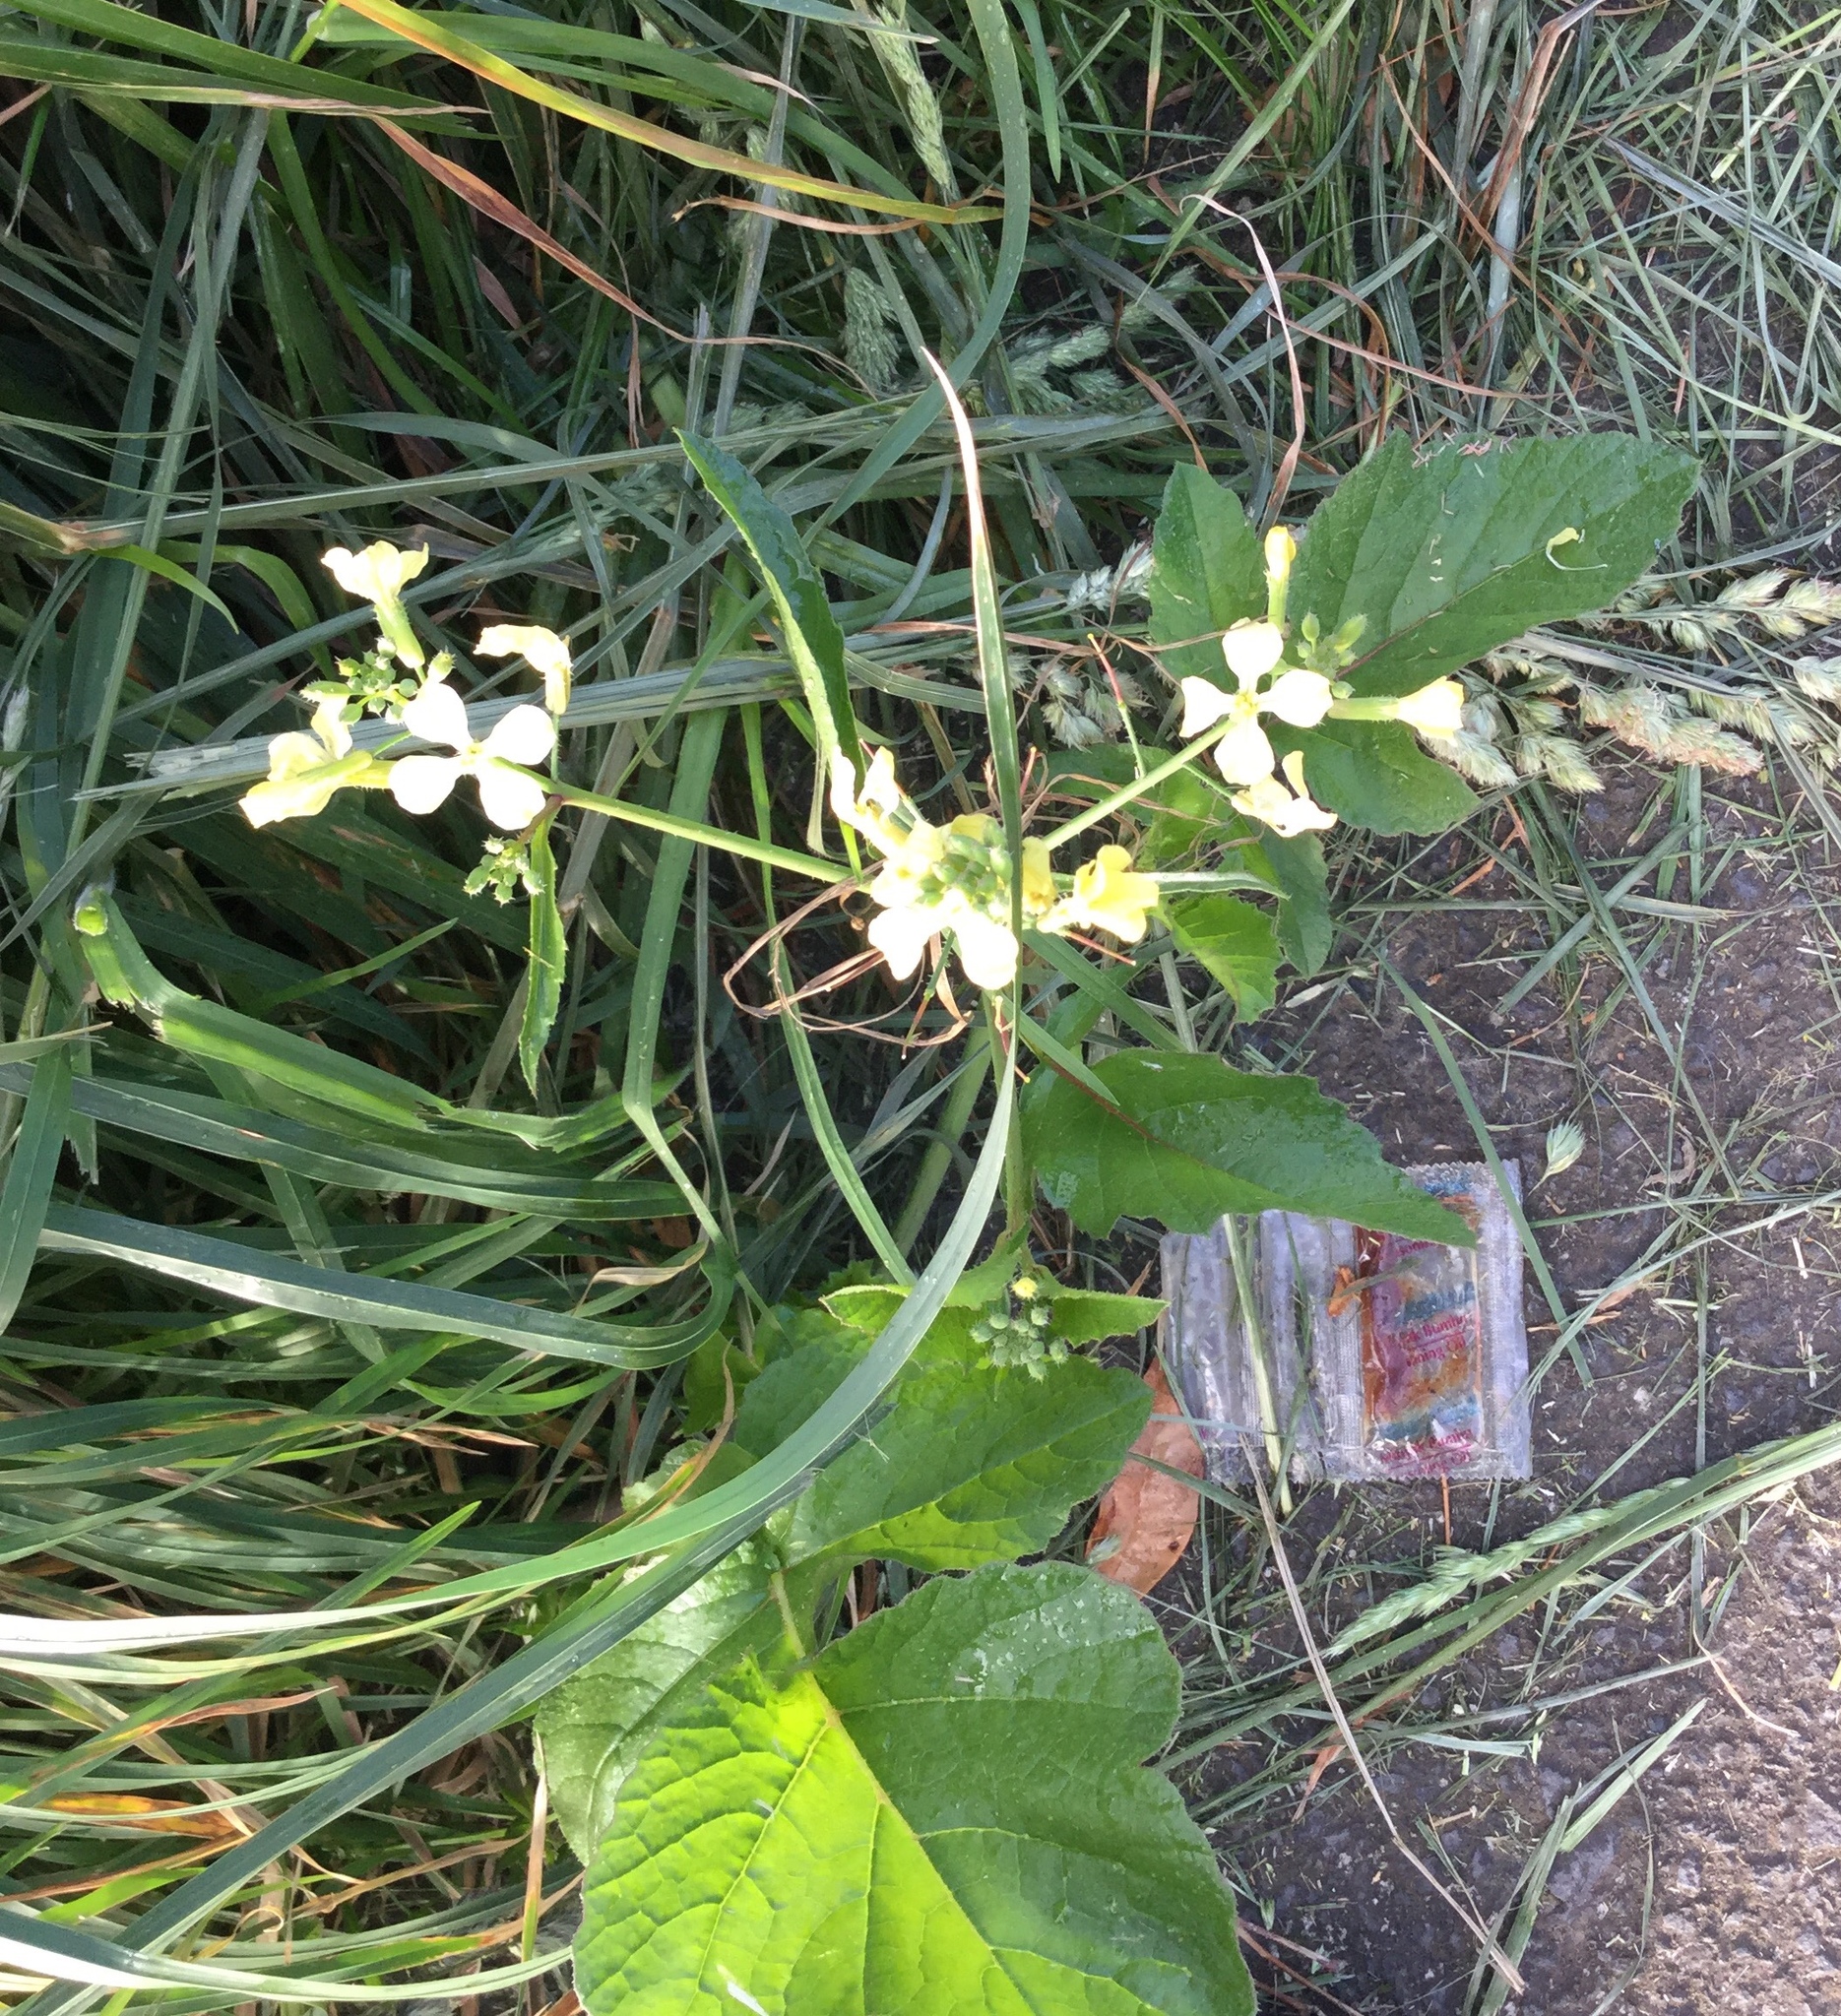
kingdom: Plantae
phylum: Tracheophyta
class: Magnoliopsida
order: Brassicales
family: Brassicaceae
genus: Raphanus
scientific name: Raphanus raphanistrum
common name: Wild radish
